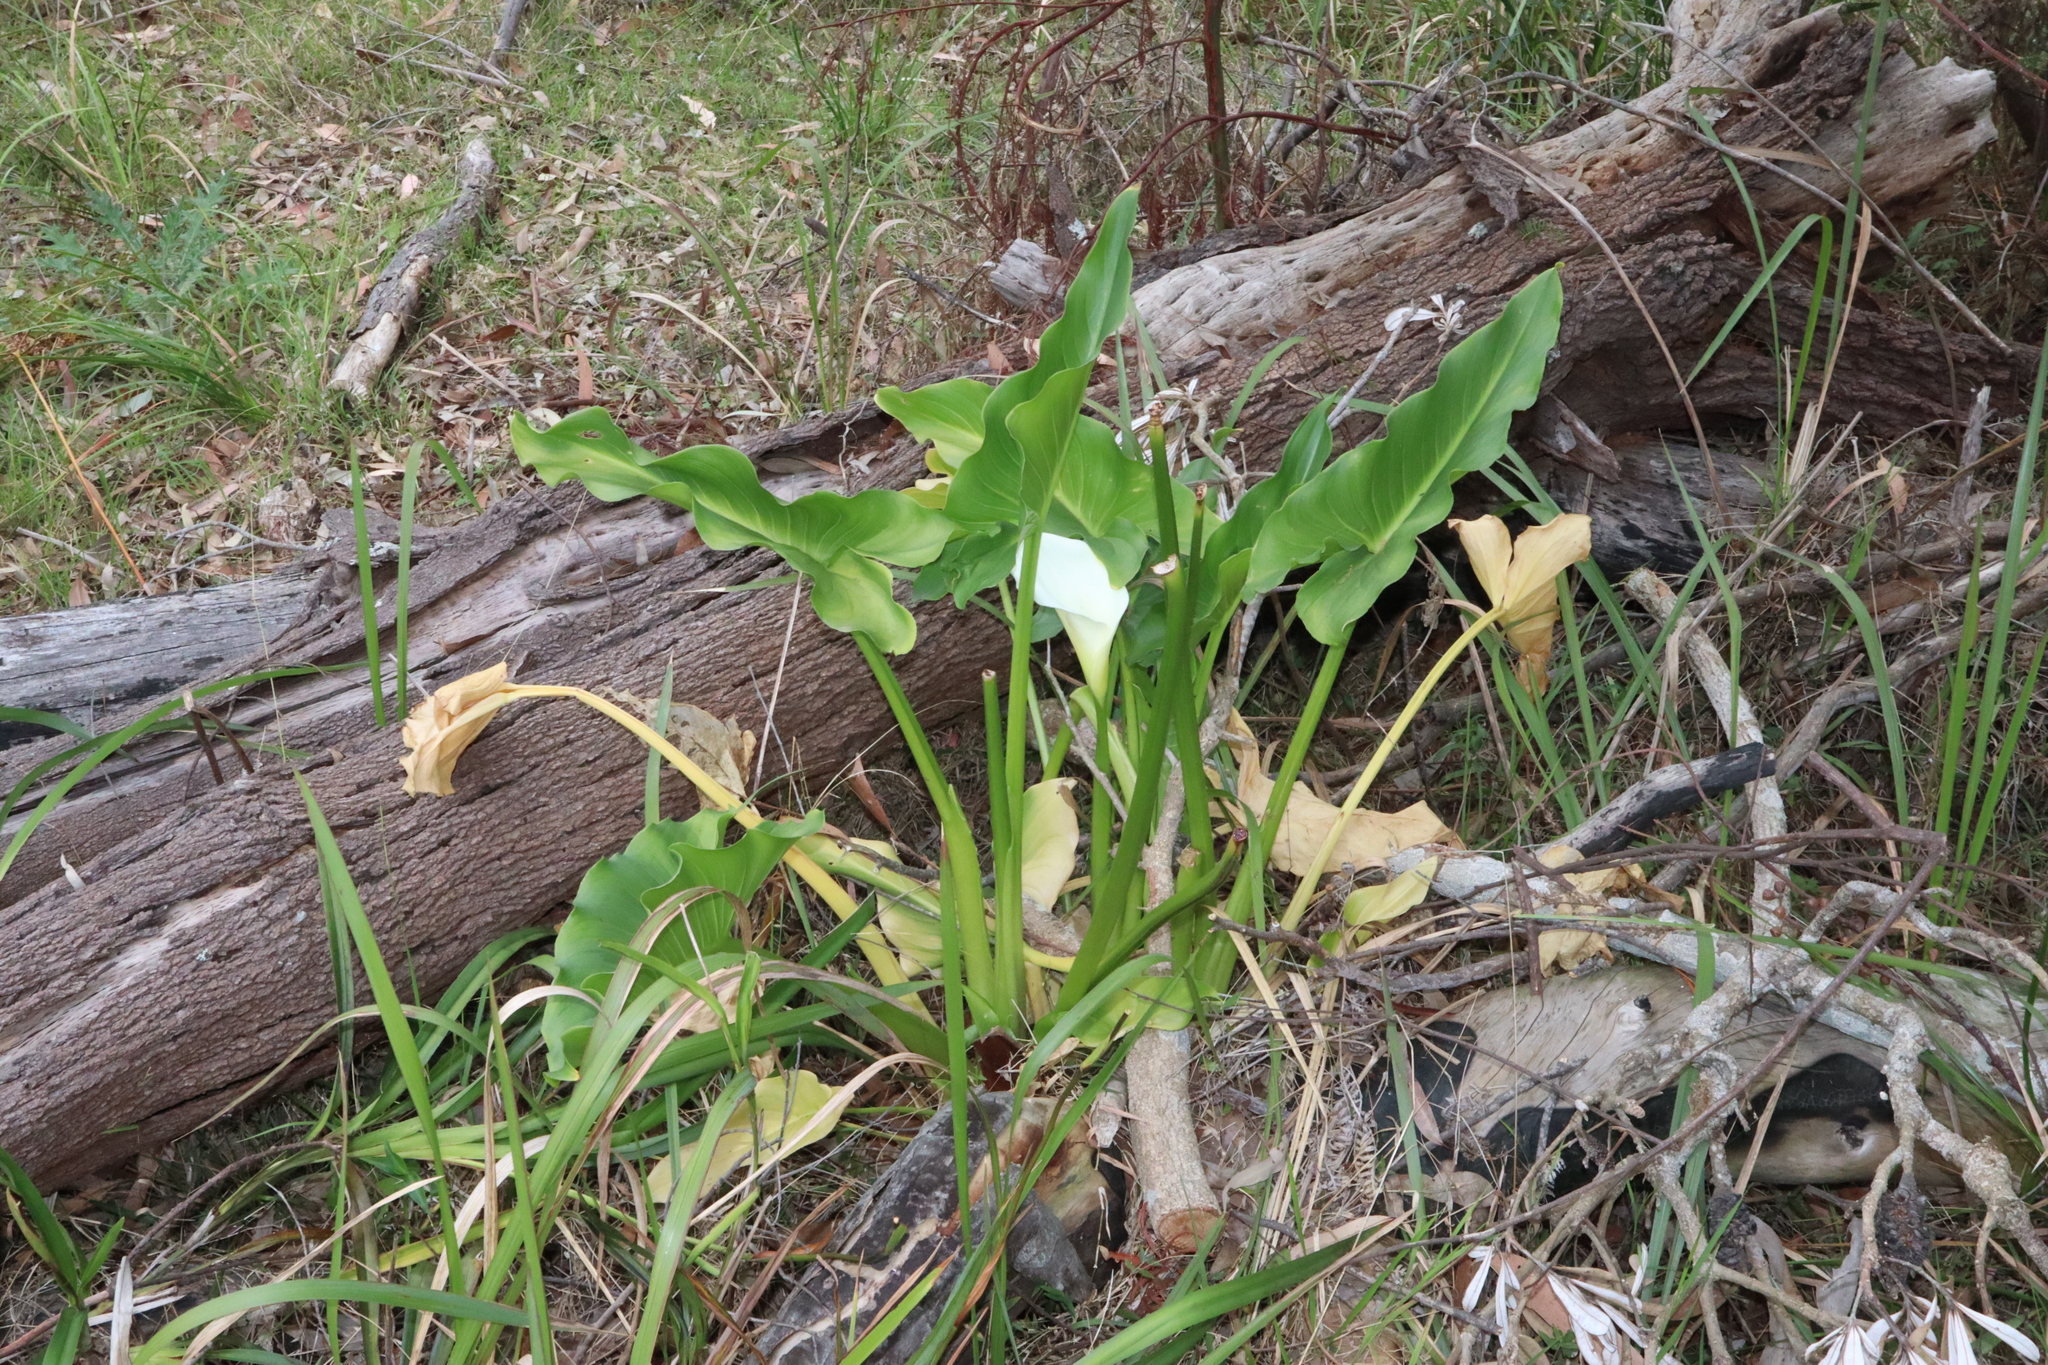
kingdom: Plantae
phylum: Tracheophyta
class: Liliopsida
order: Alismatales
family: Araceae
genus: Zantedeschia
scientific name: Zantedeschia aethiopica
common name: Altar-lily
